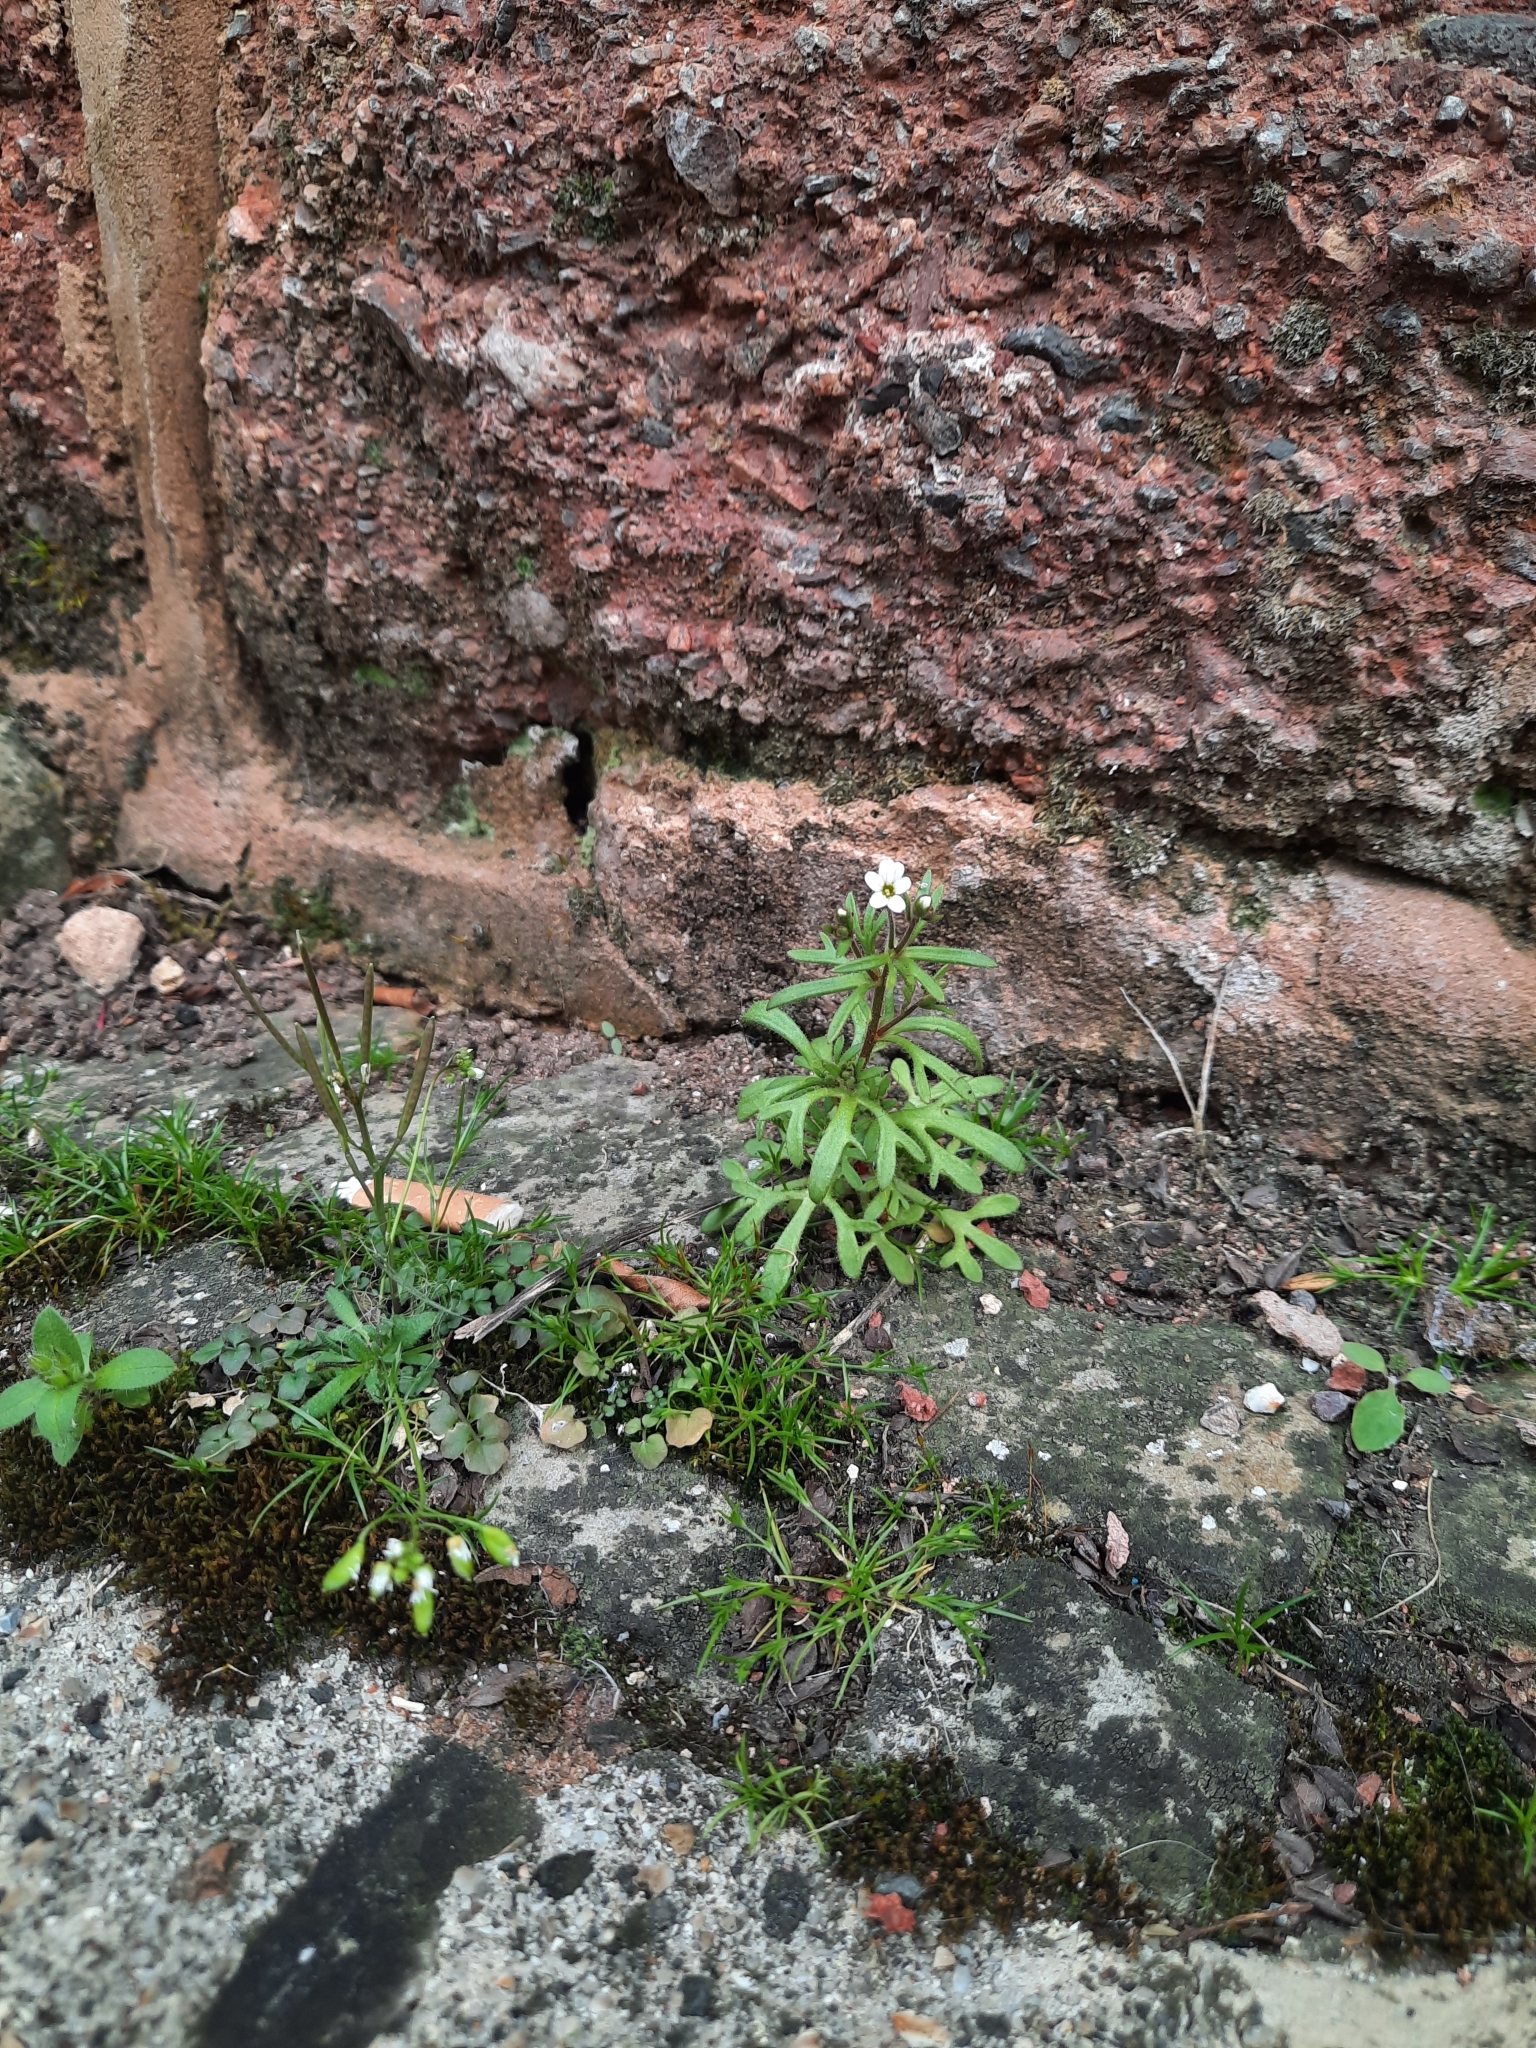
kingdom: Plantae
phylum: Tracheophyta
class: Magnoliopsida
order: Saxifragales
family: Saxifragaceae
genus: Saxifraga
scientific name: Saxifraga tridactylites
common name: Rue-leaved saxifrage
